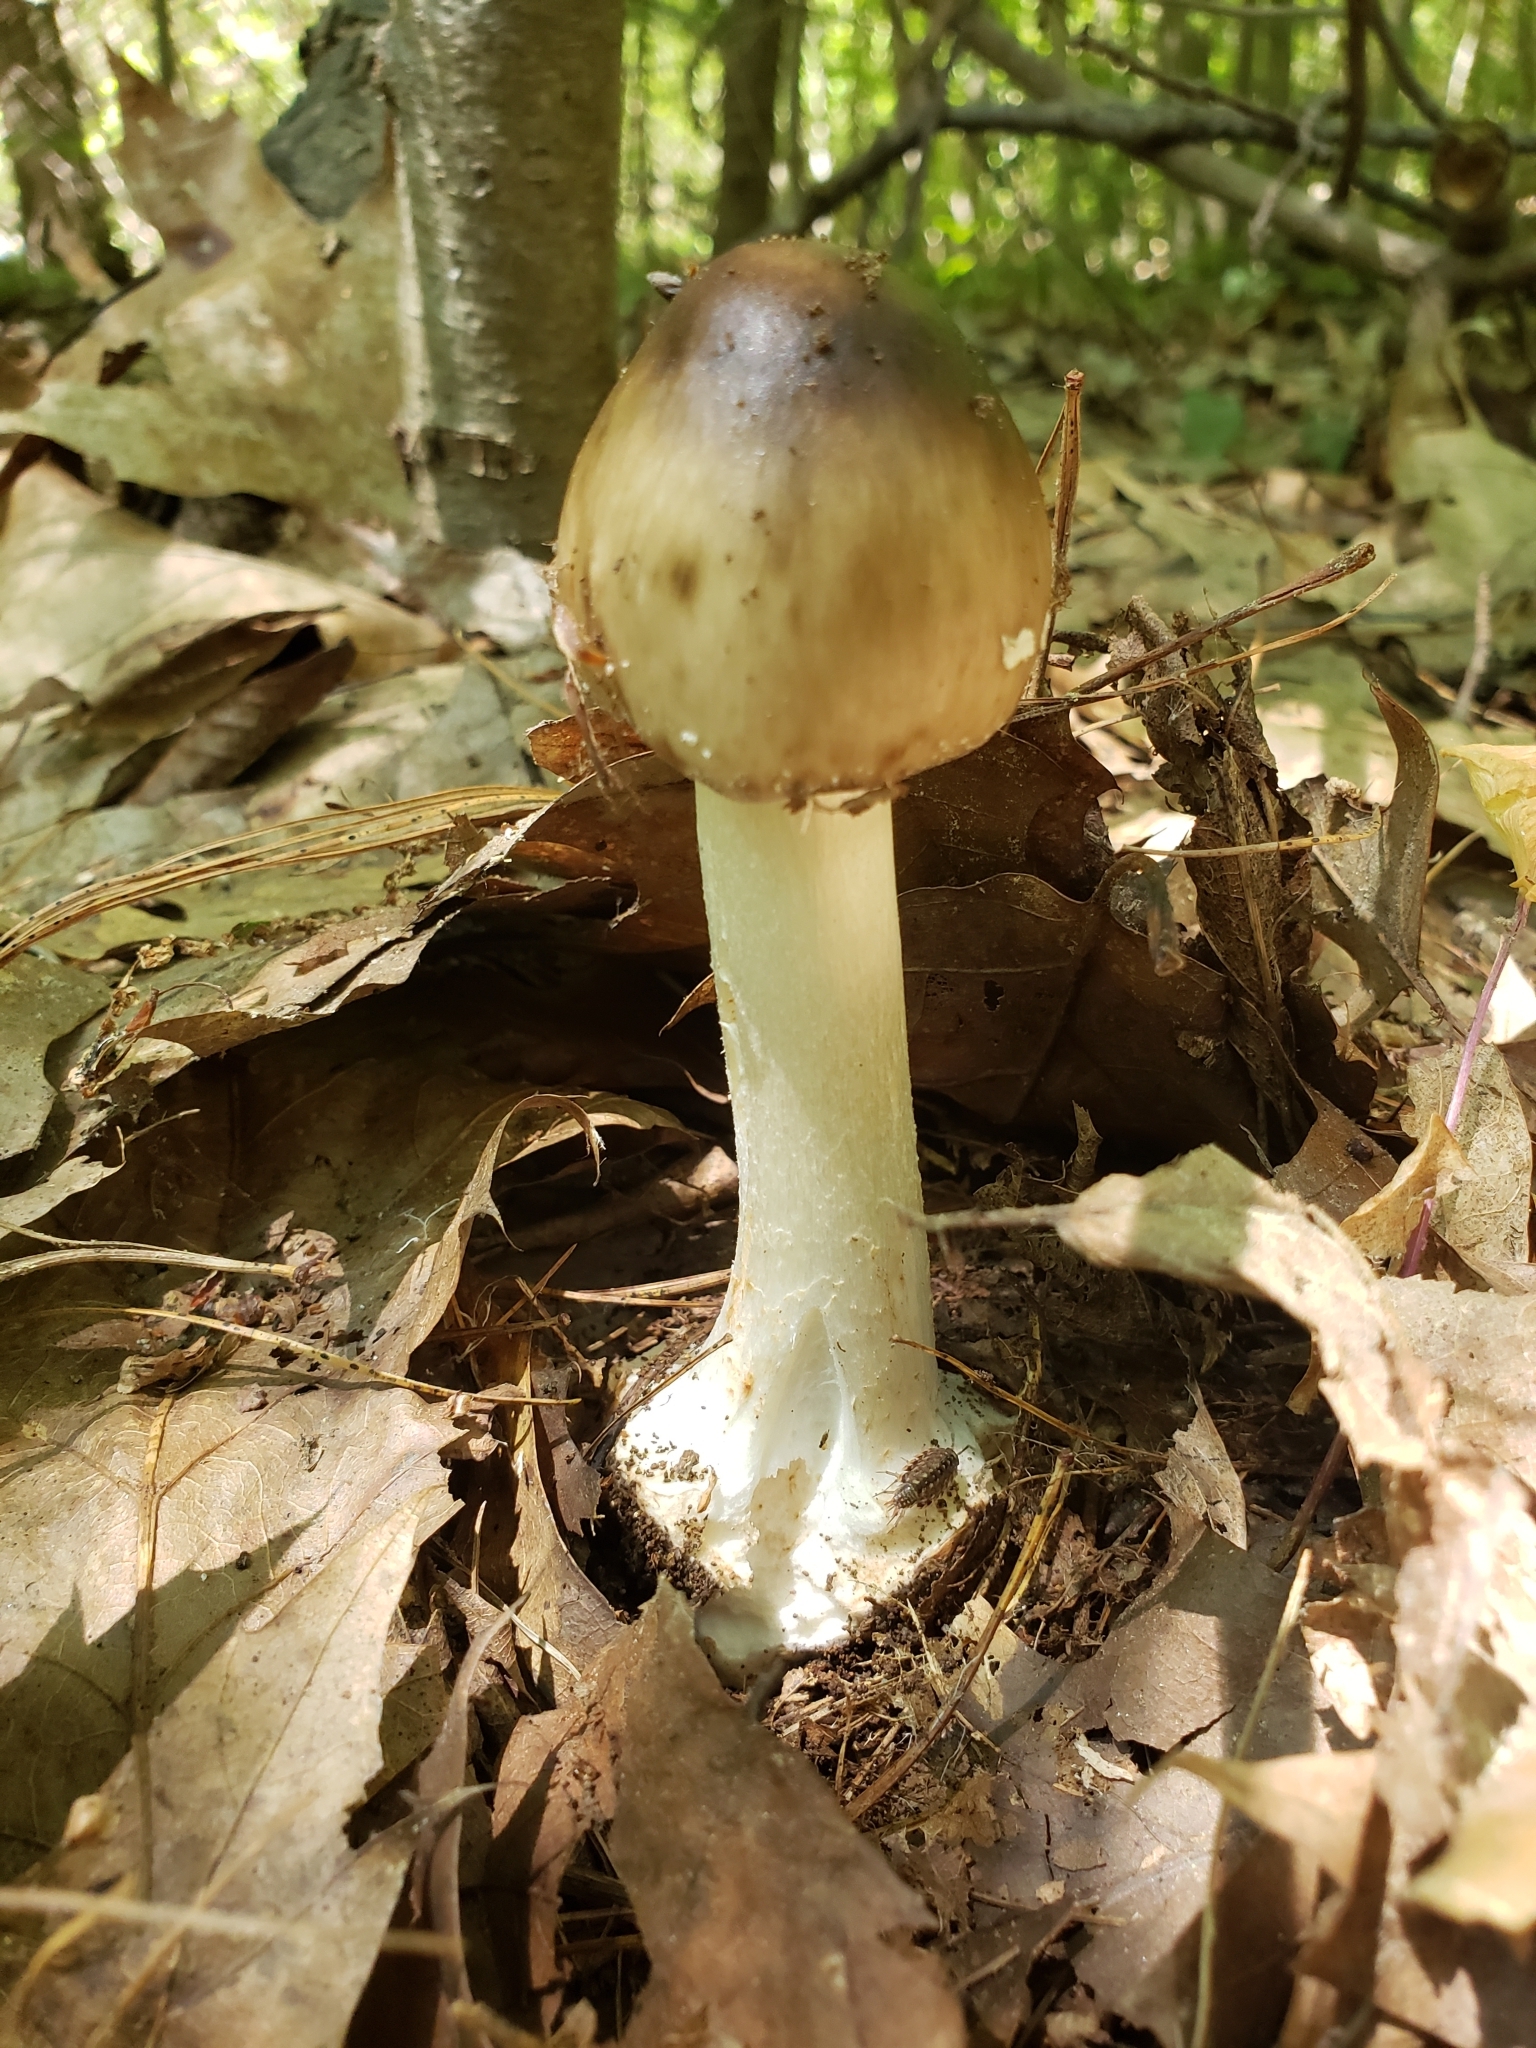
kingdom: Fungi
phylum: Basidiomycota
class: Agaricomycetes
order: Agaricales
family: Amanitaceae
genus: Amanita
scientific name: Amanita brunnescens
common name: Brown american star-footed amanita
